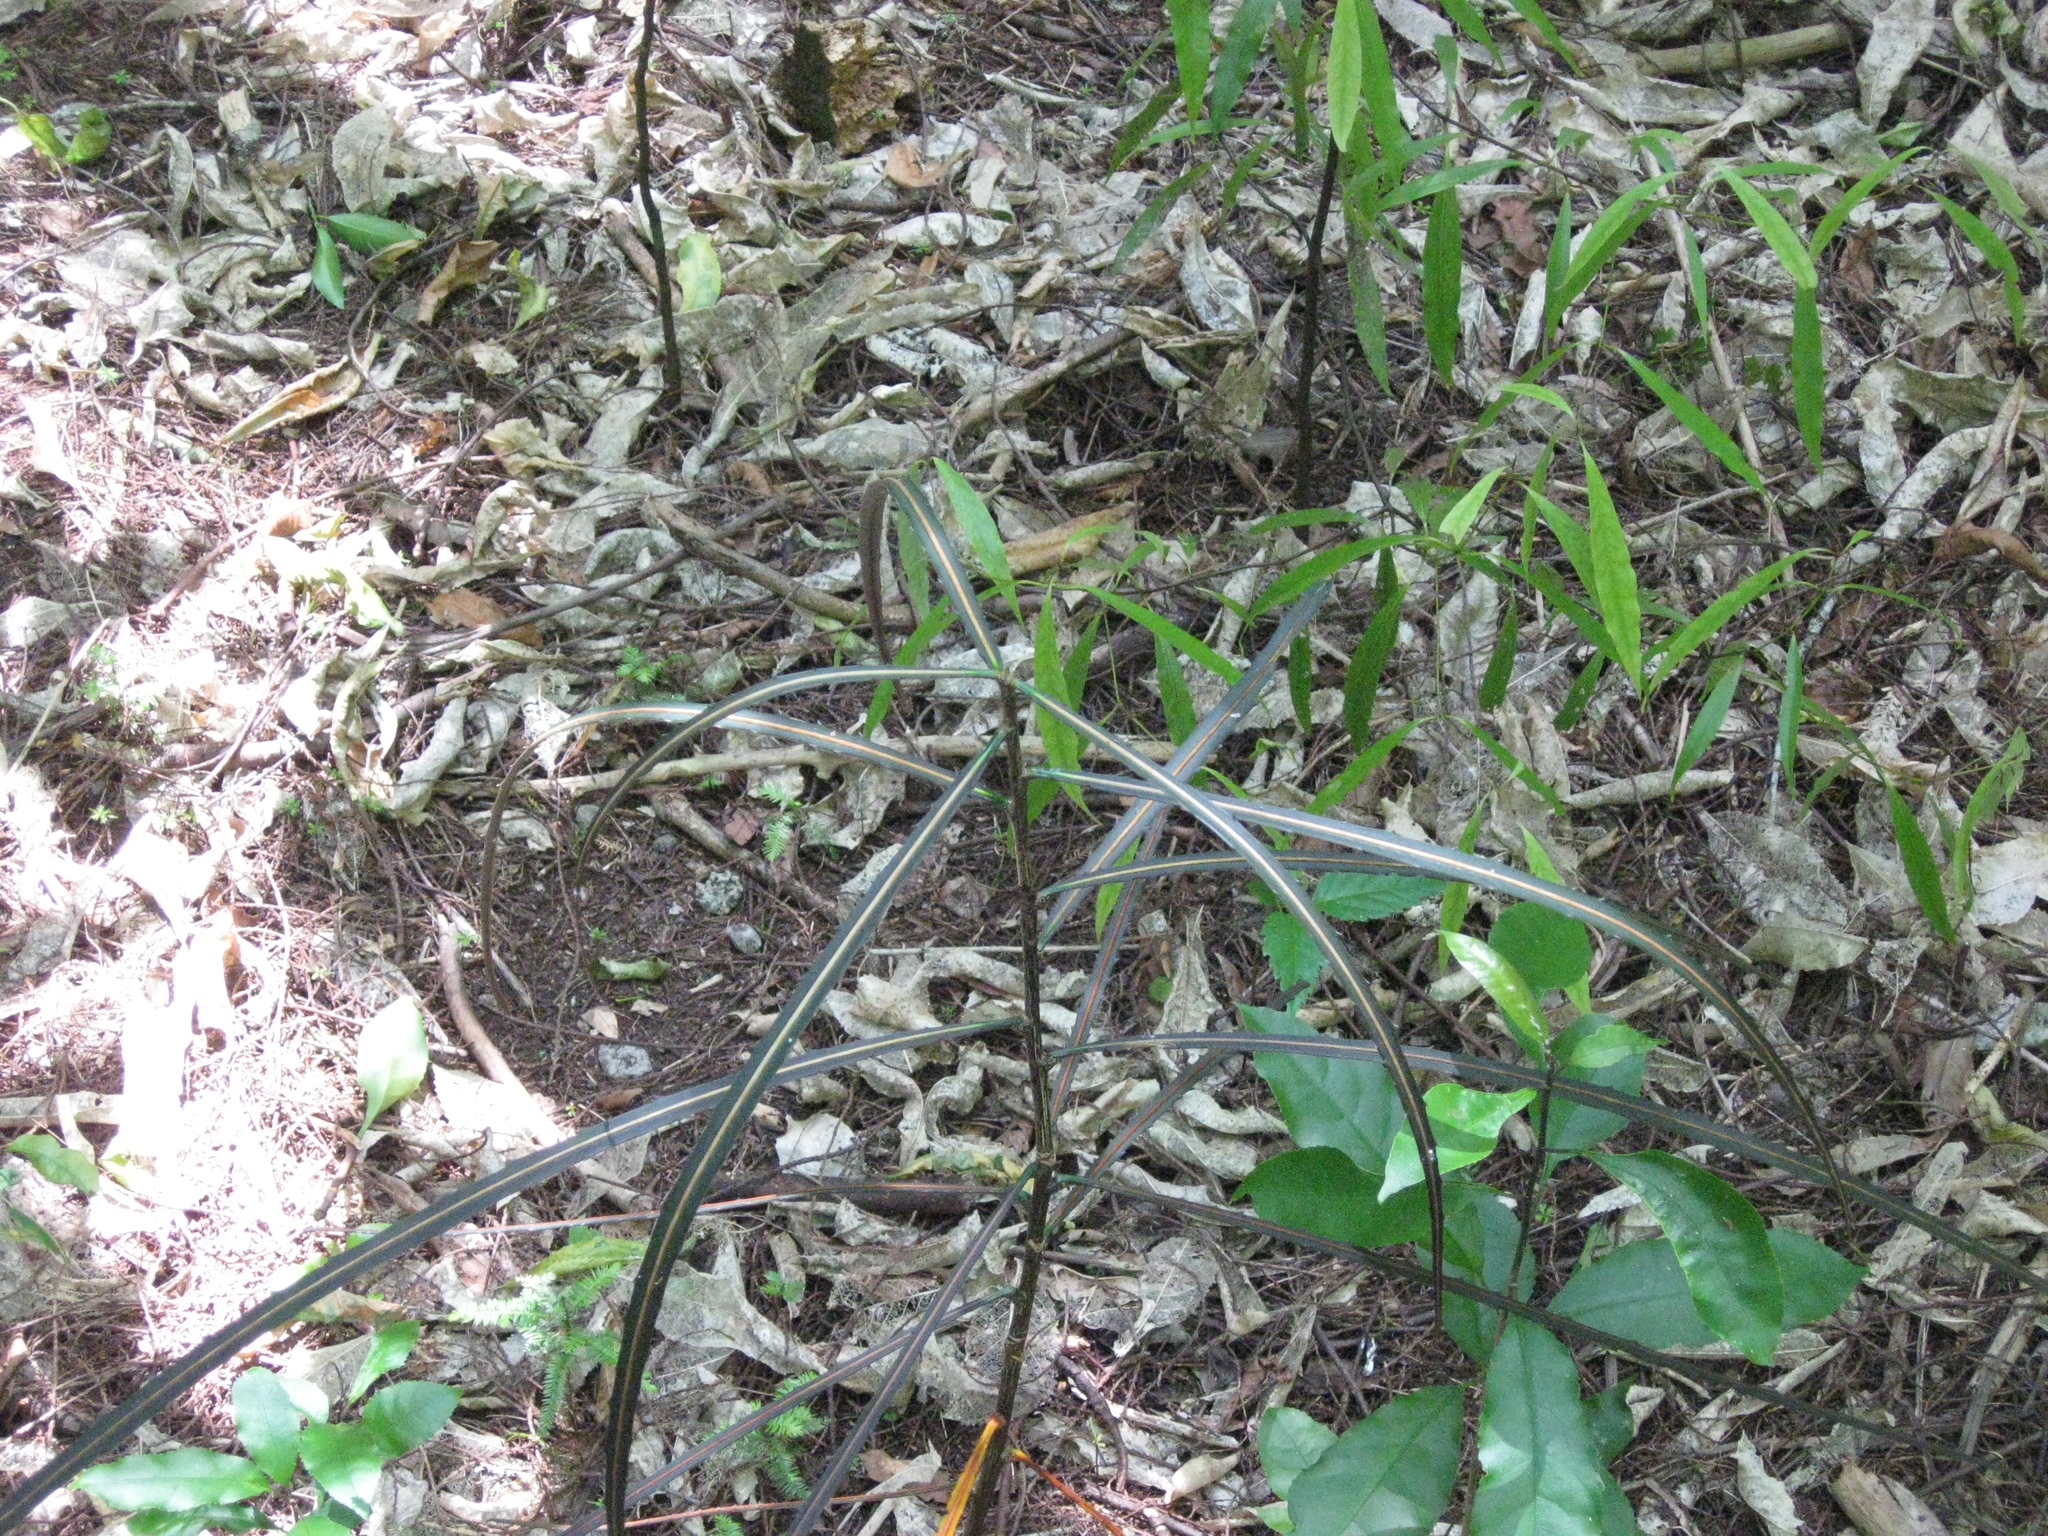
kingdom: Plantae
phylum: Tracheophyta
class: Magnoliopsida
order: Apiales
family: Araliaceae
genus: Pseudopanax
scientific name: Pseudopanax crassifolius
